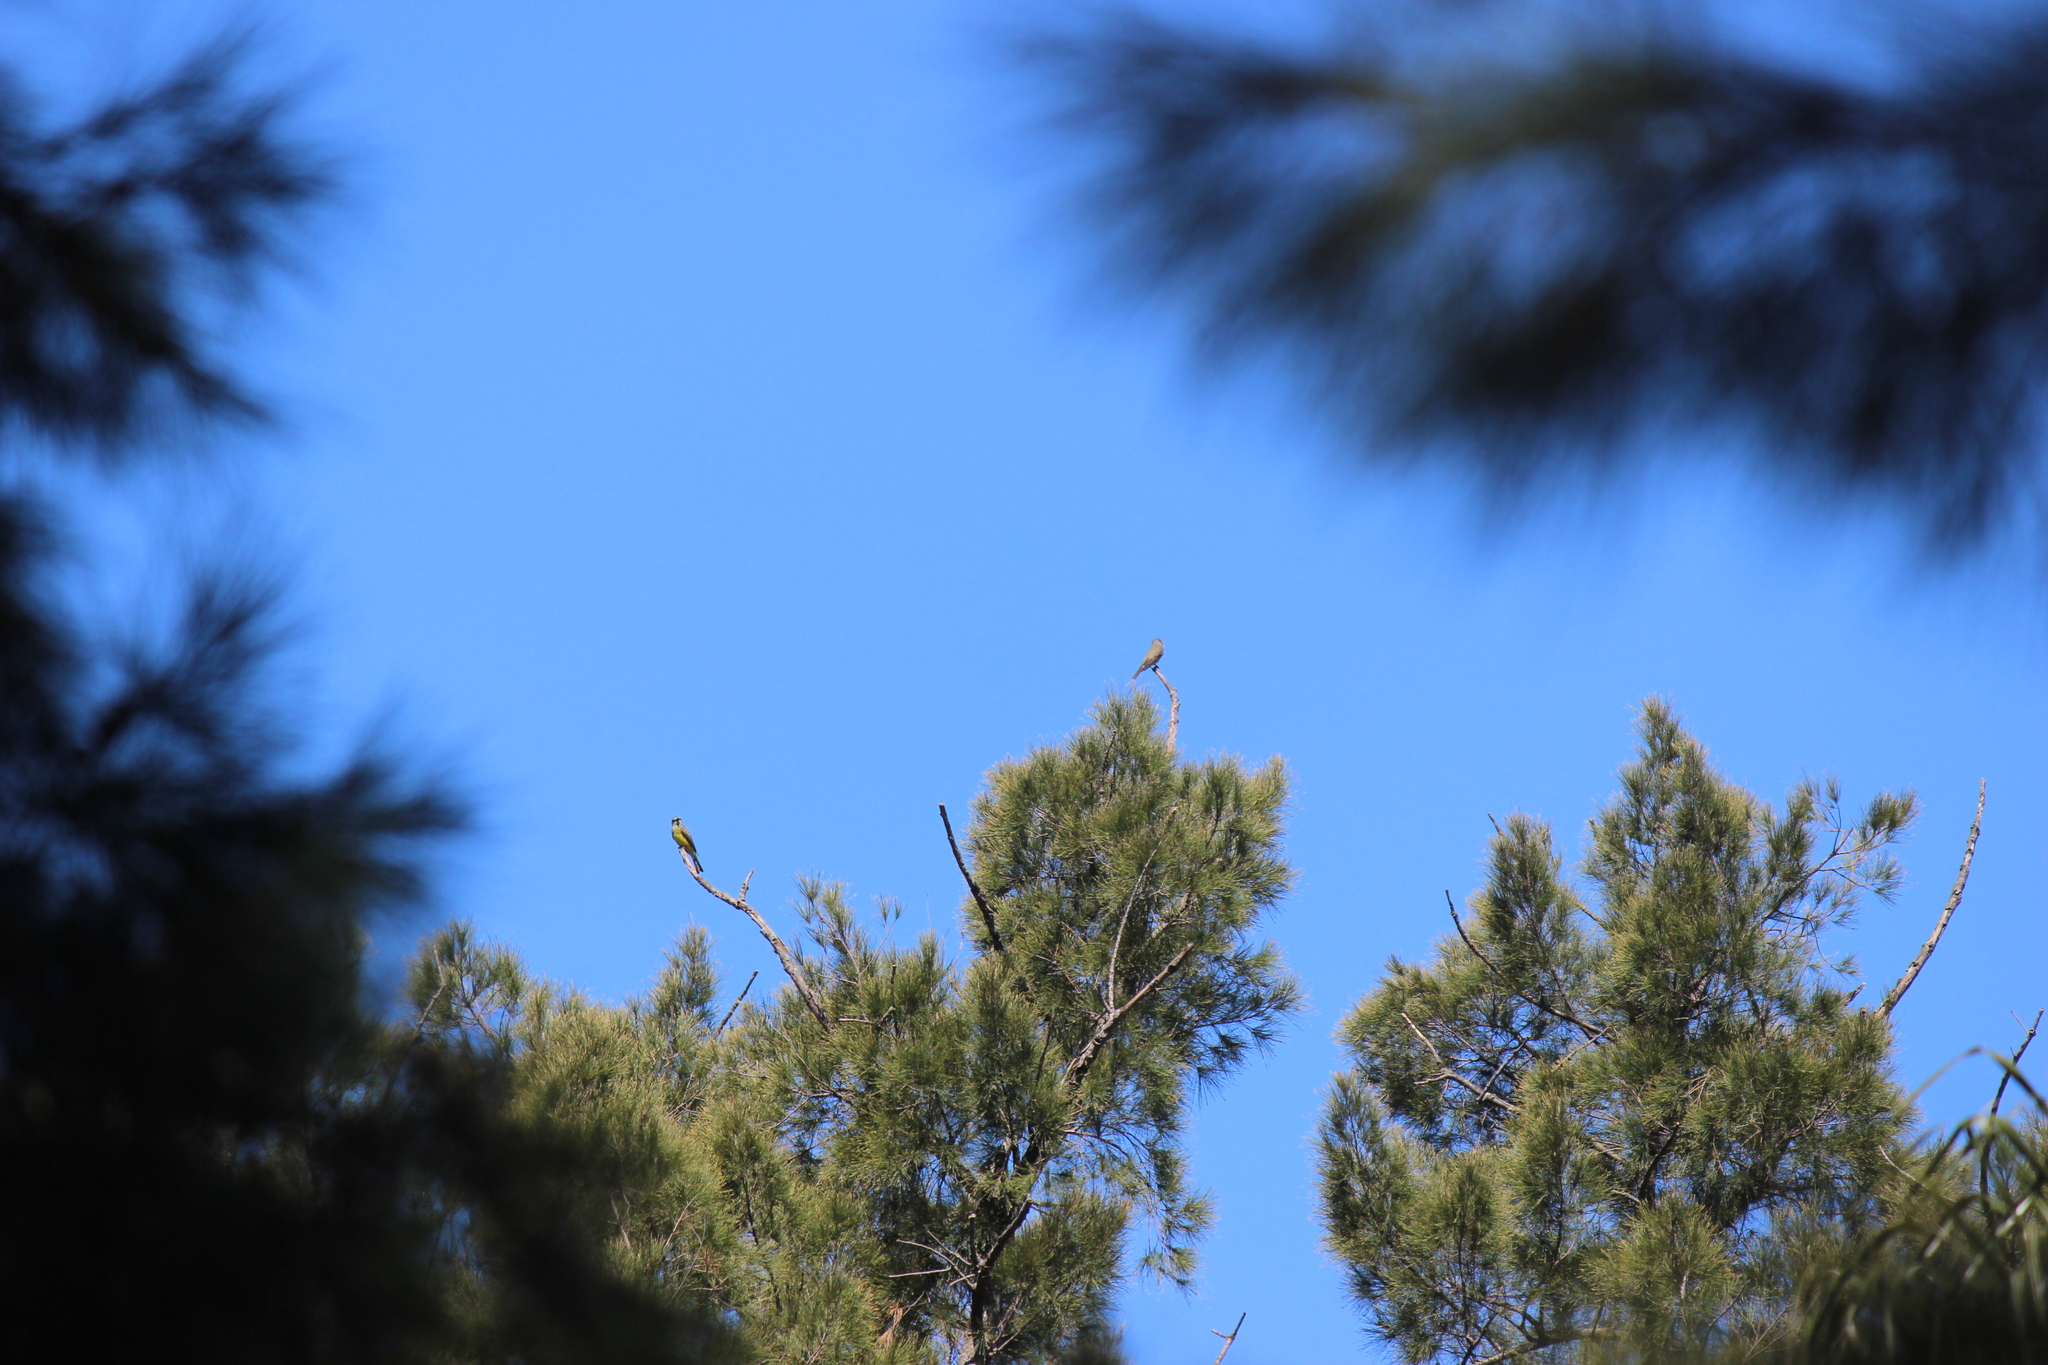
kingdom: Animalia
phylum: Chordata
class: Aves
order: Passeriformes
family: Tyrannidae
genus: Tyrannus
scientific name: Tyrannus melancholicus
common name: Tropical kingbird
